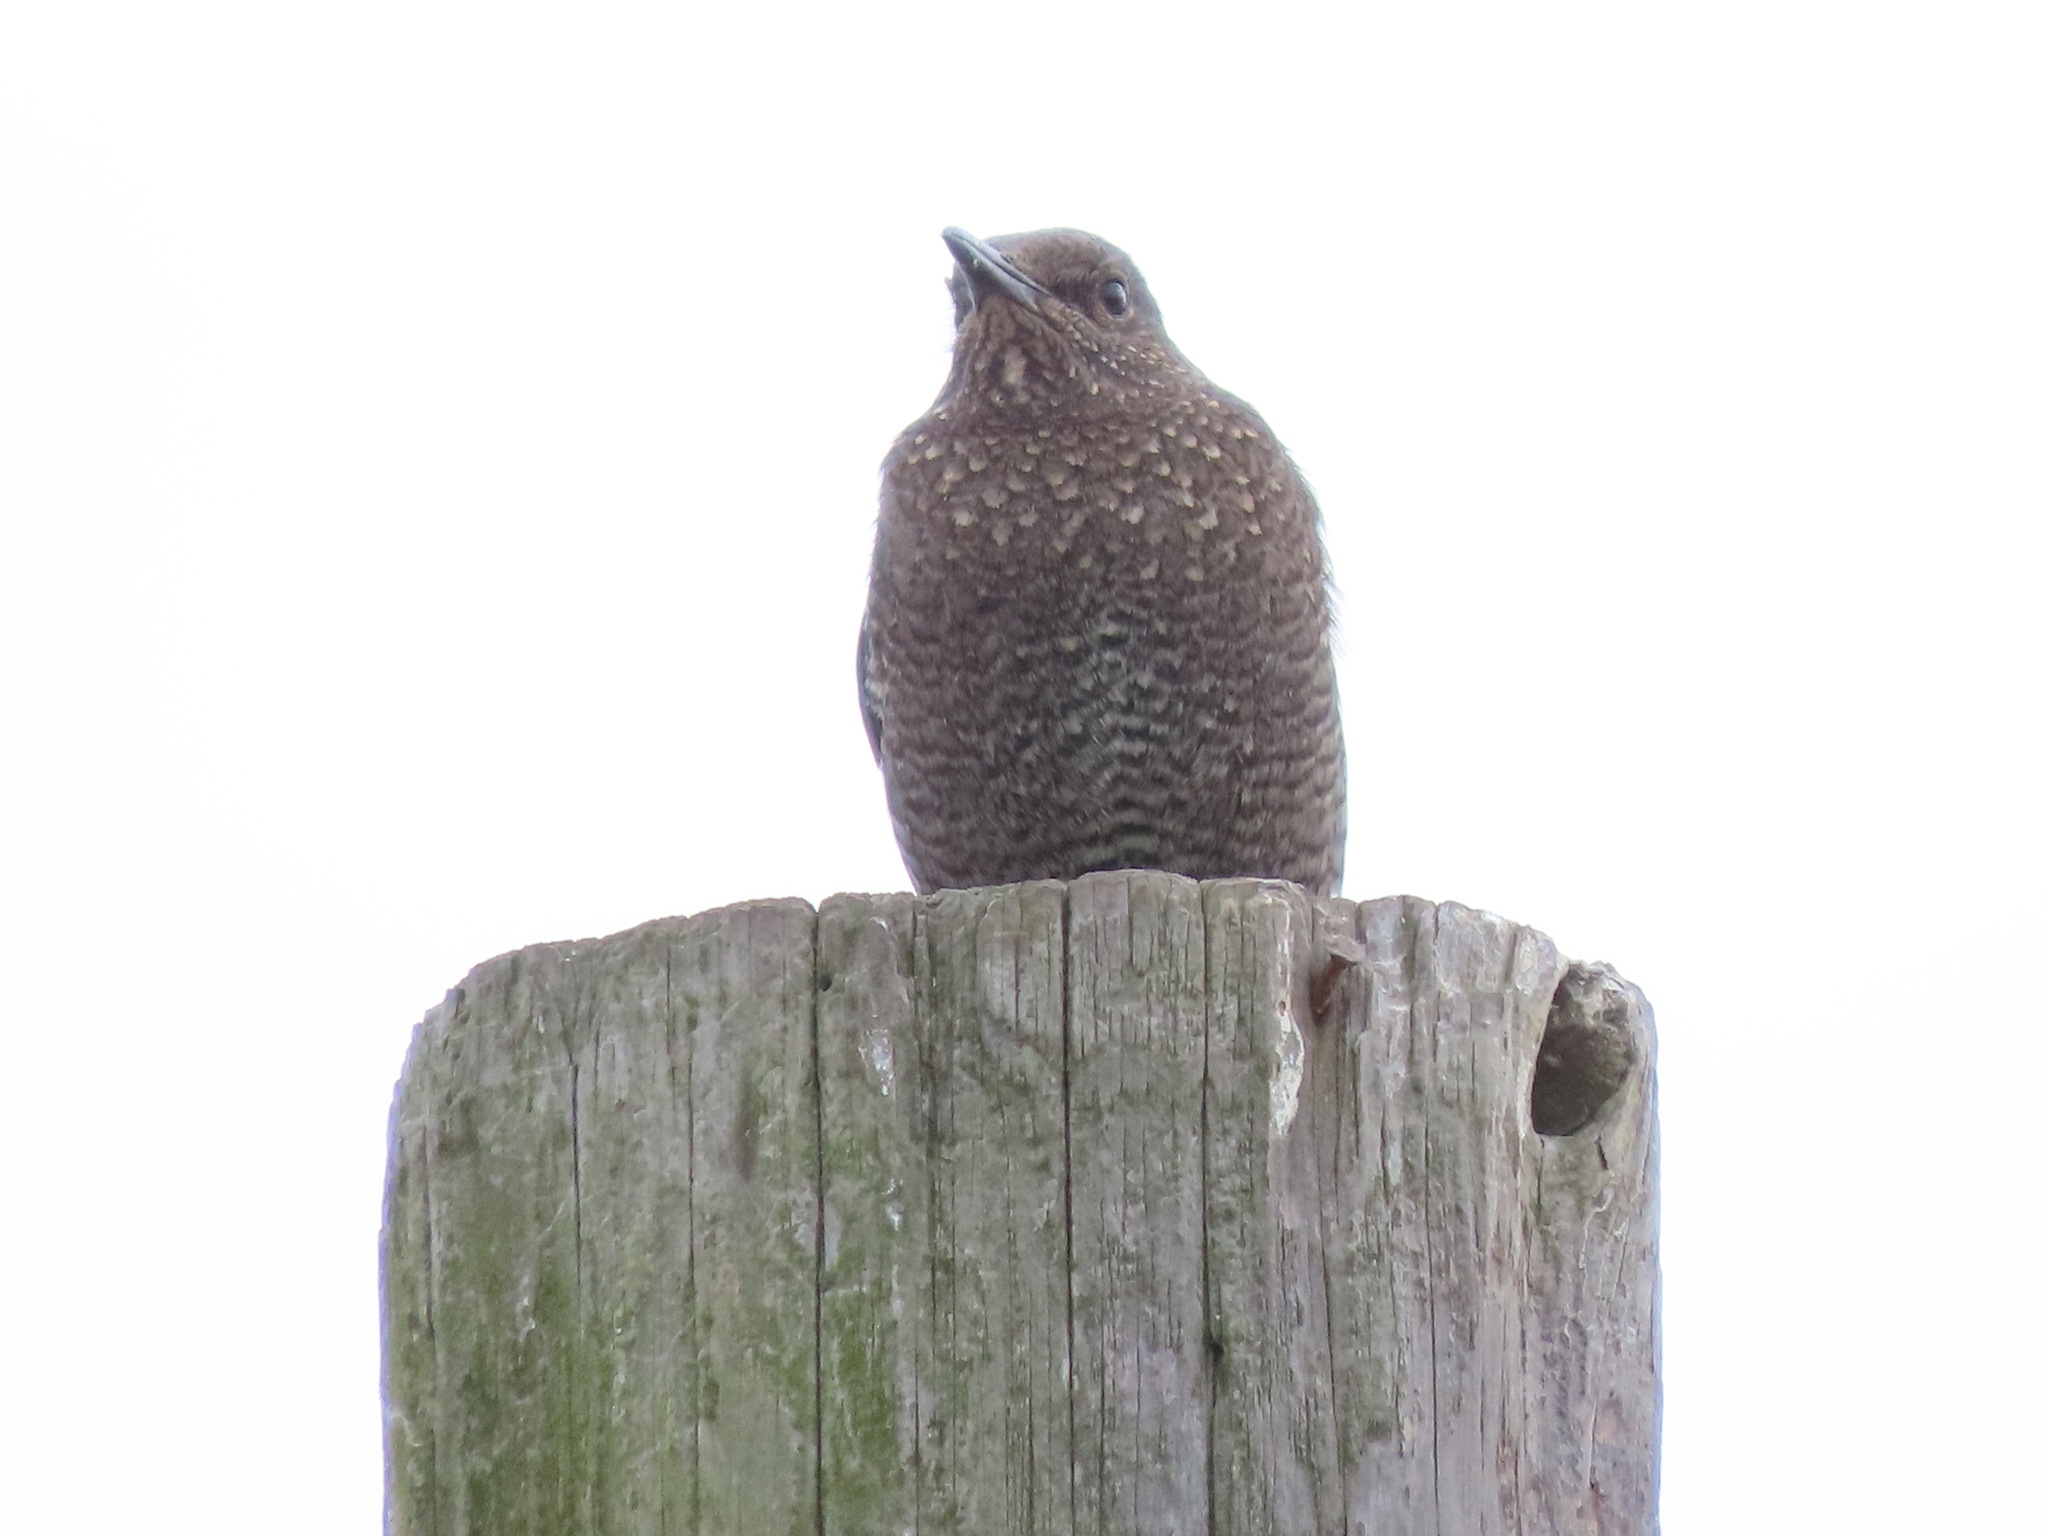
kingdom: Animalia
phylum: Chordata
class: Aves
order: Passeriformes
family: Muscicapidae
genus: Monticola
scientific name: Monticola solitarius
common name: Blue rock thrush
